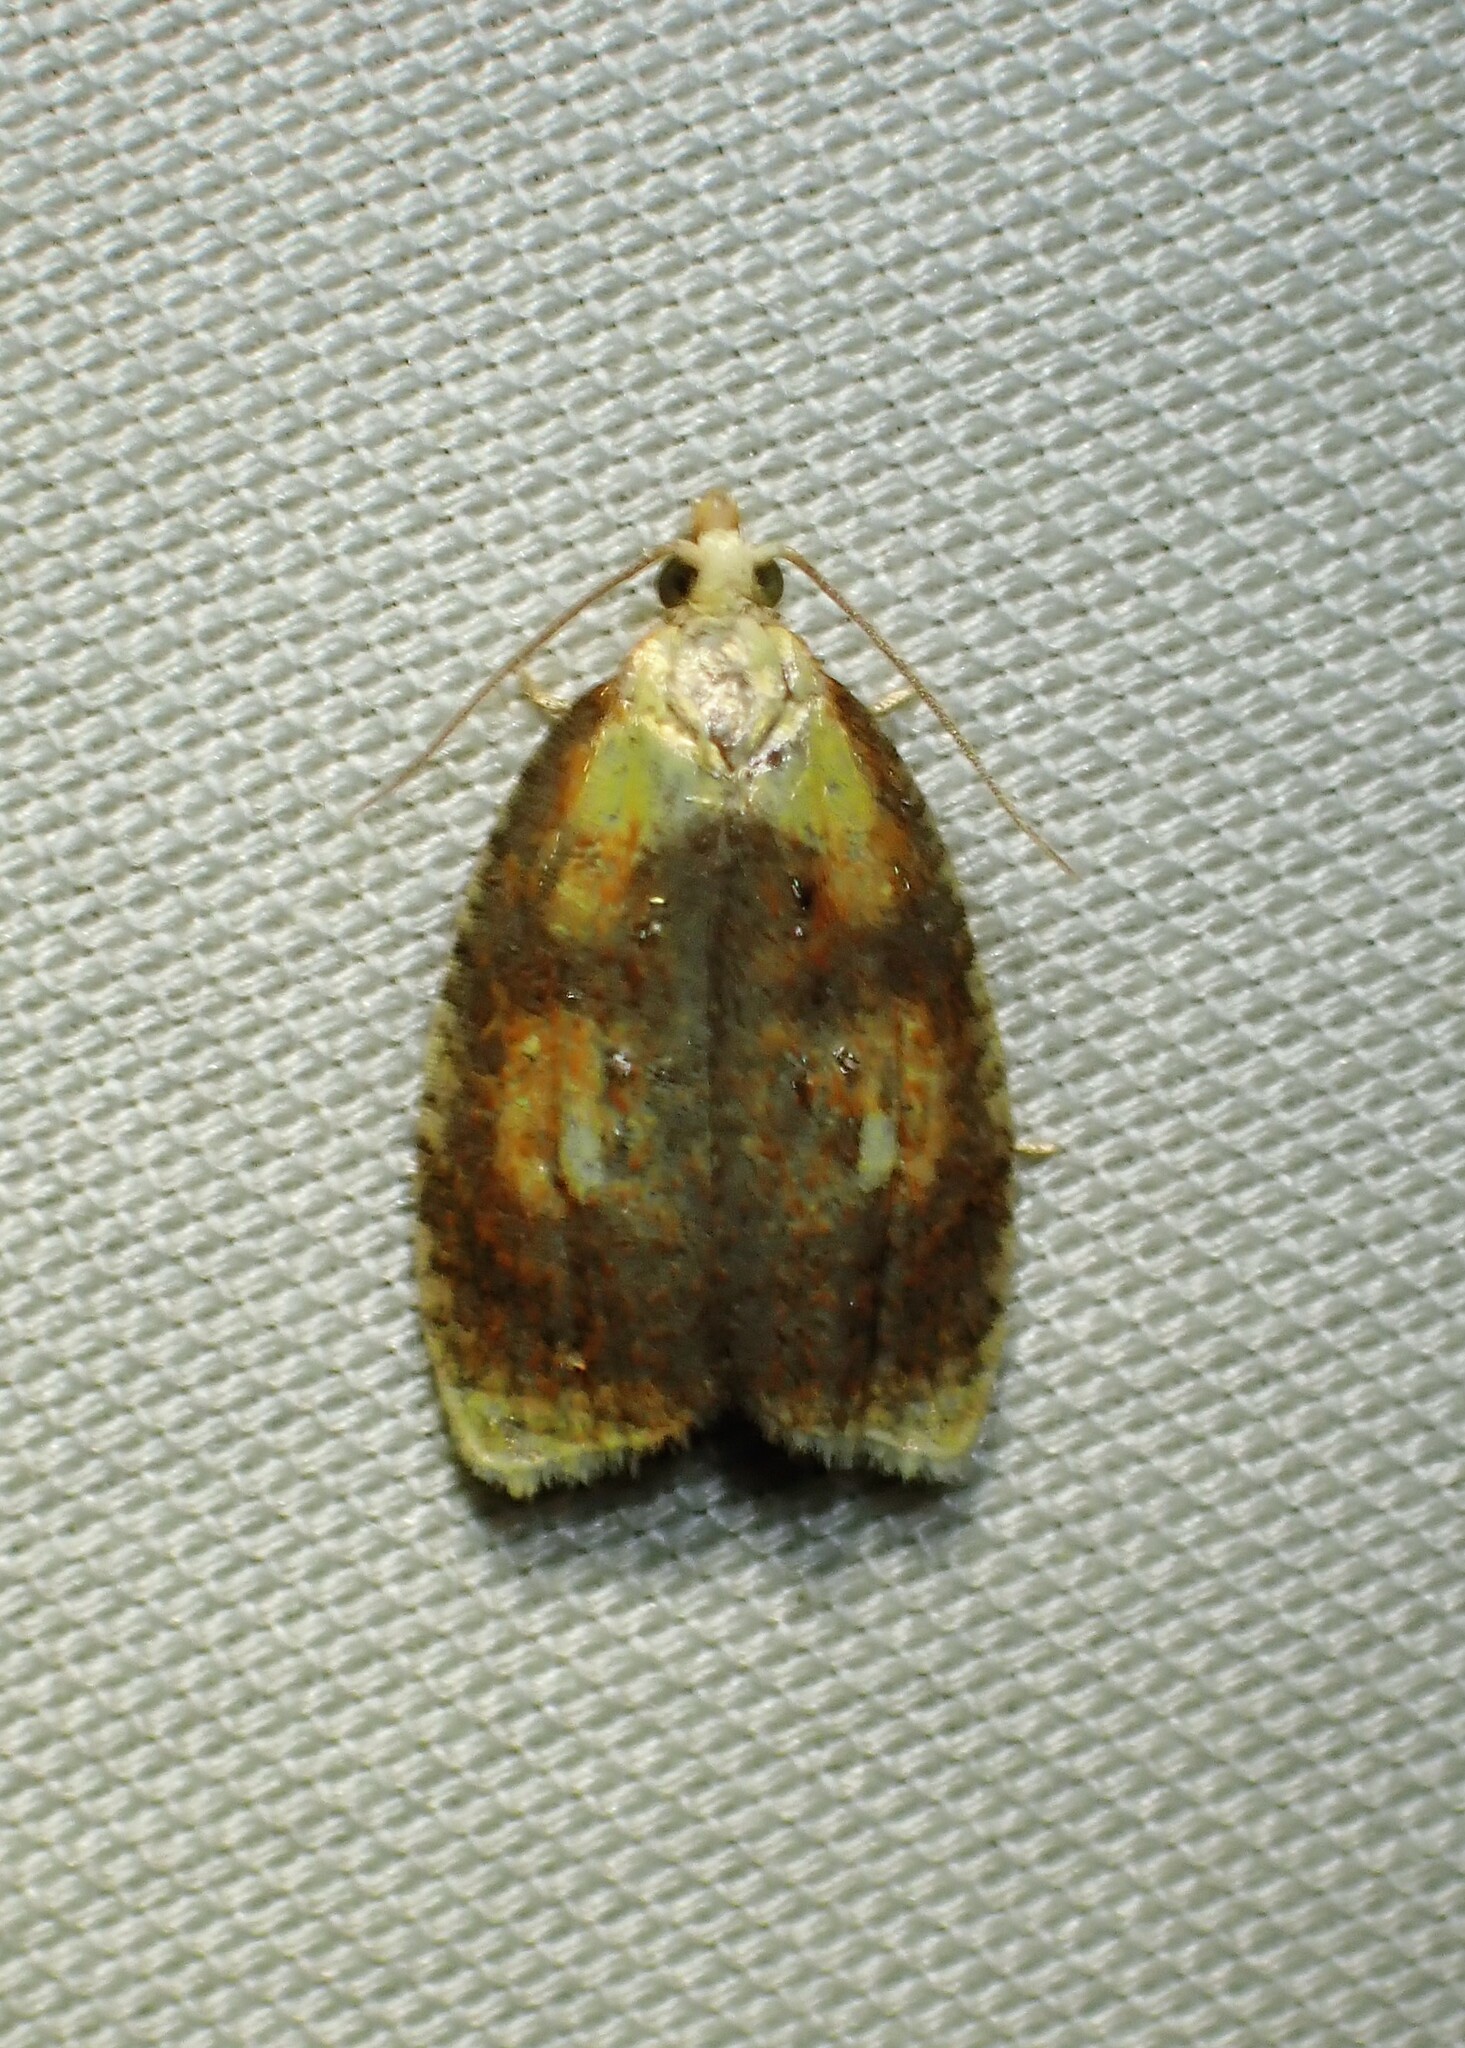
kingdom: Animalia
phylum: Arthropoda
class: Insecta
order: Lepidoptera
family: Tortricidae
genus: Acleris
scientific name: Acleris curvalana
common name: Blueberry leaftier moth
